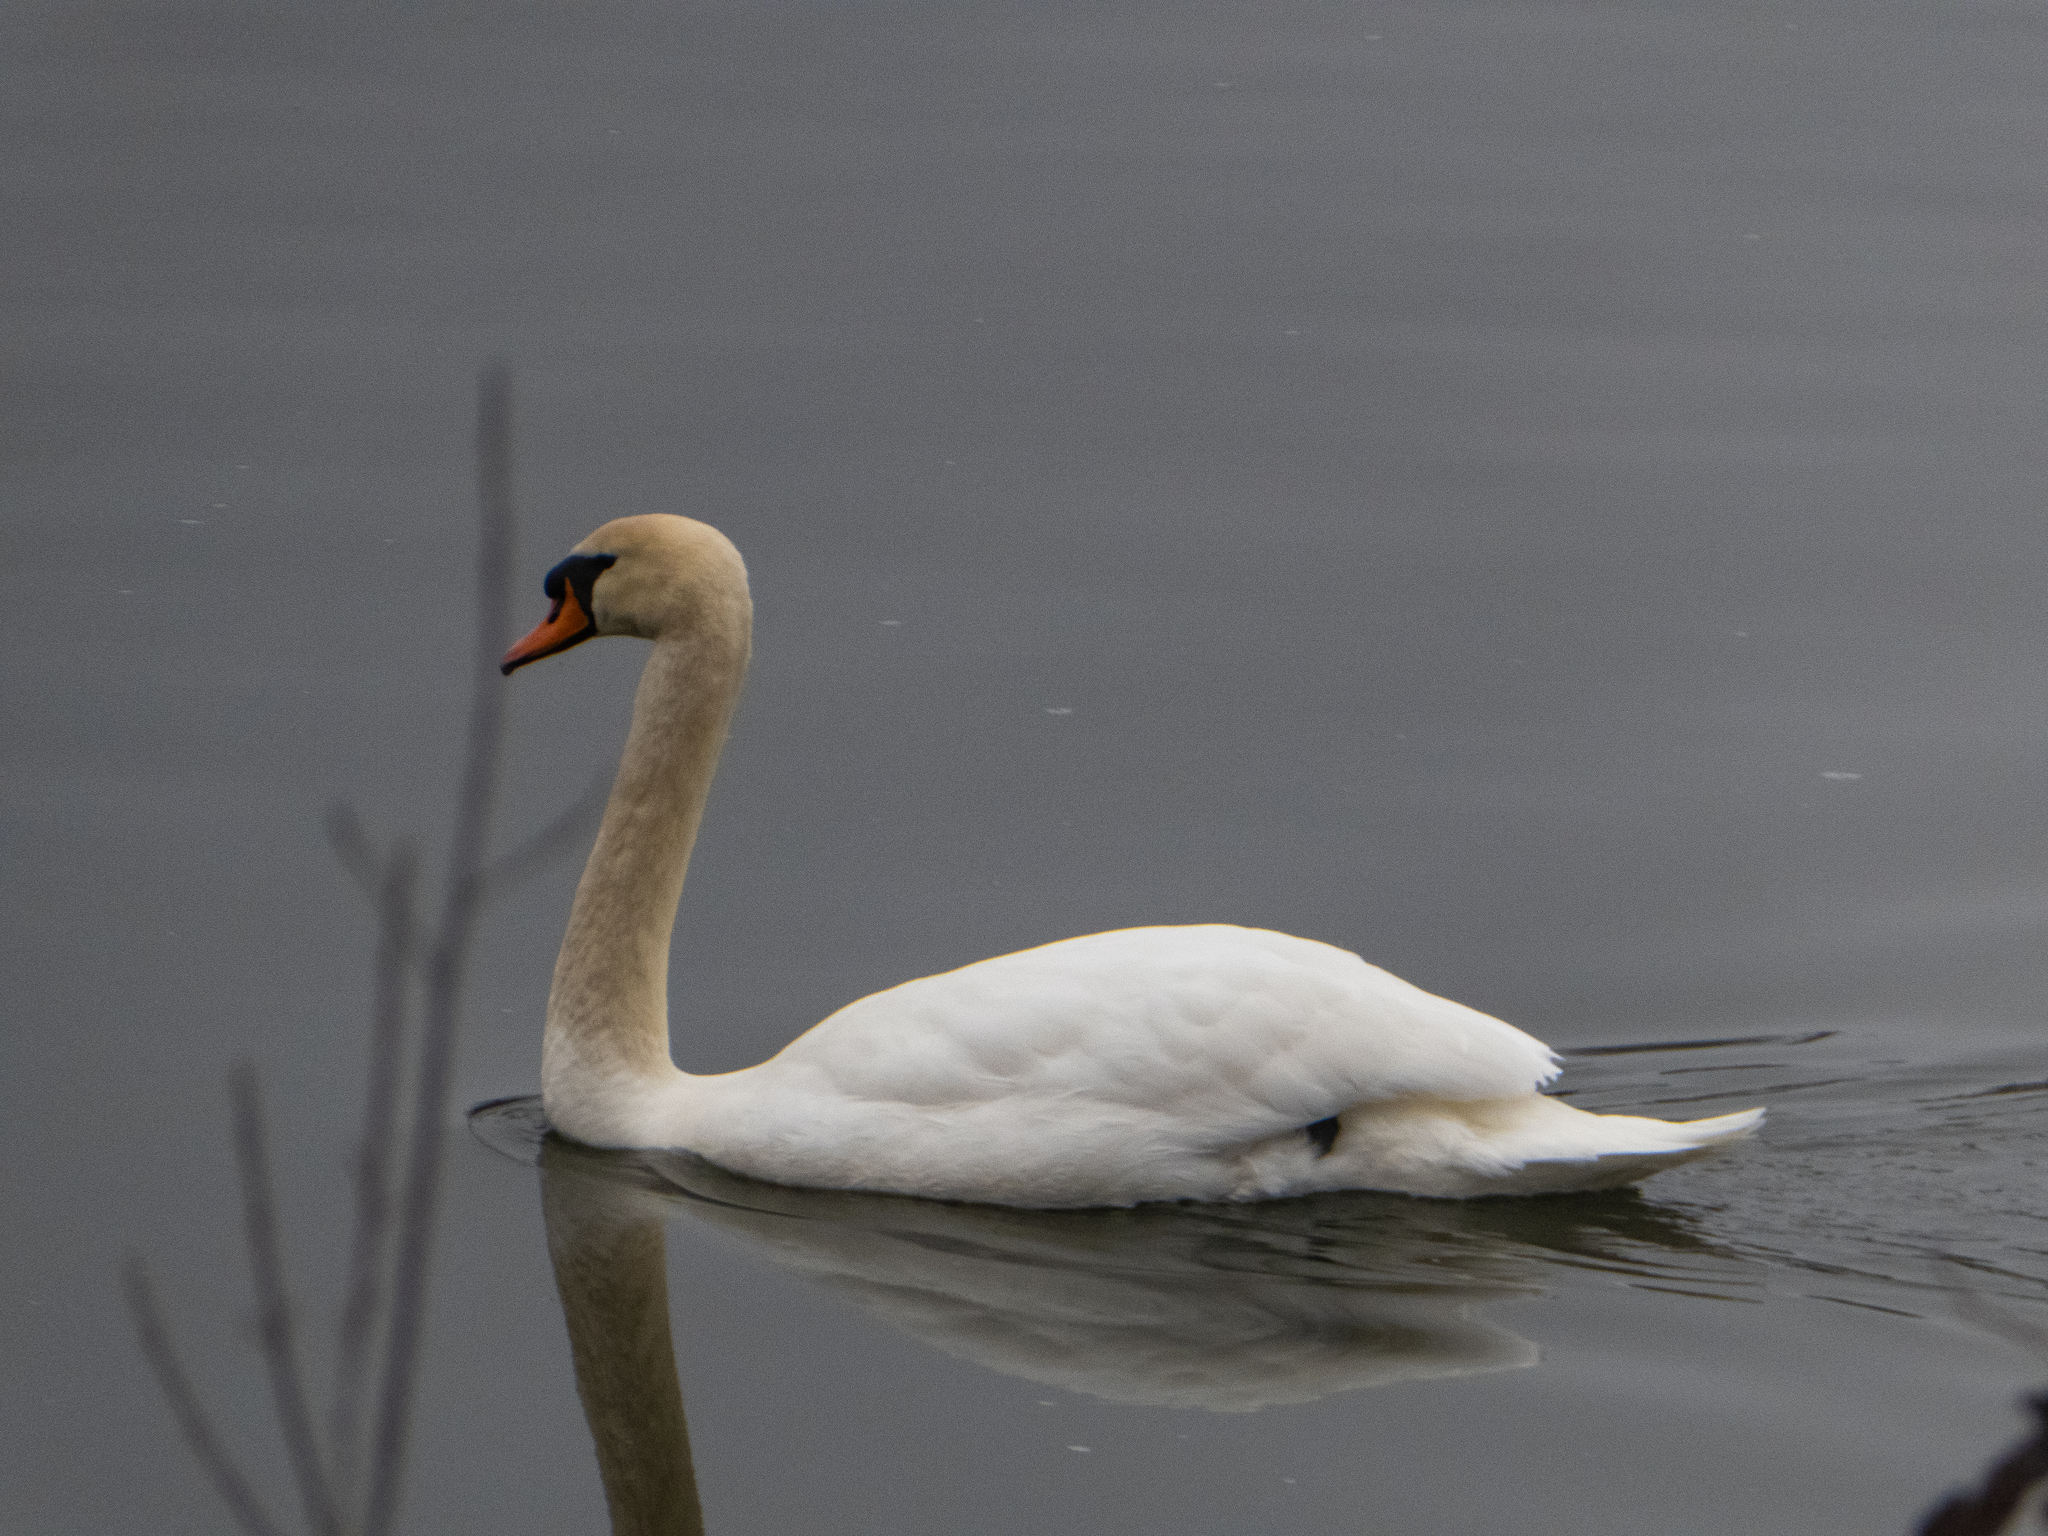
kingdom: Animalia
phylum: Chordata
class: Aves
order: Anseriformes
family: Anatidae
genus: Cygnus
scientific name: Cygnus olor
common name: Mute swan
